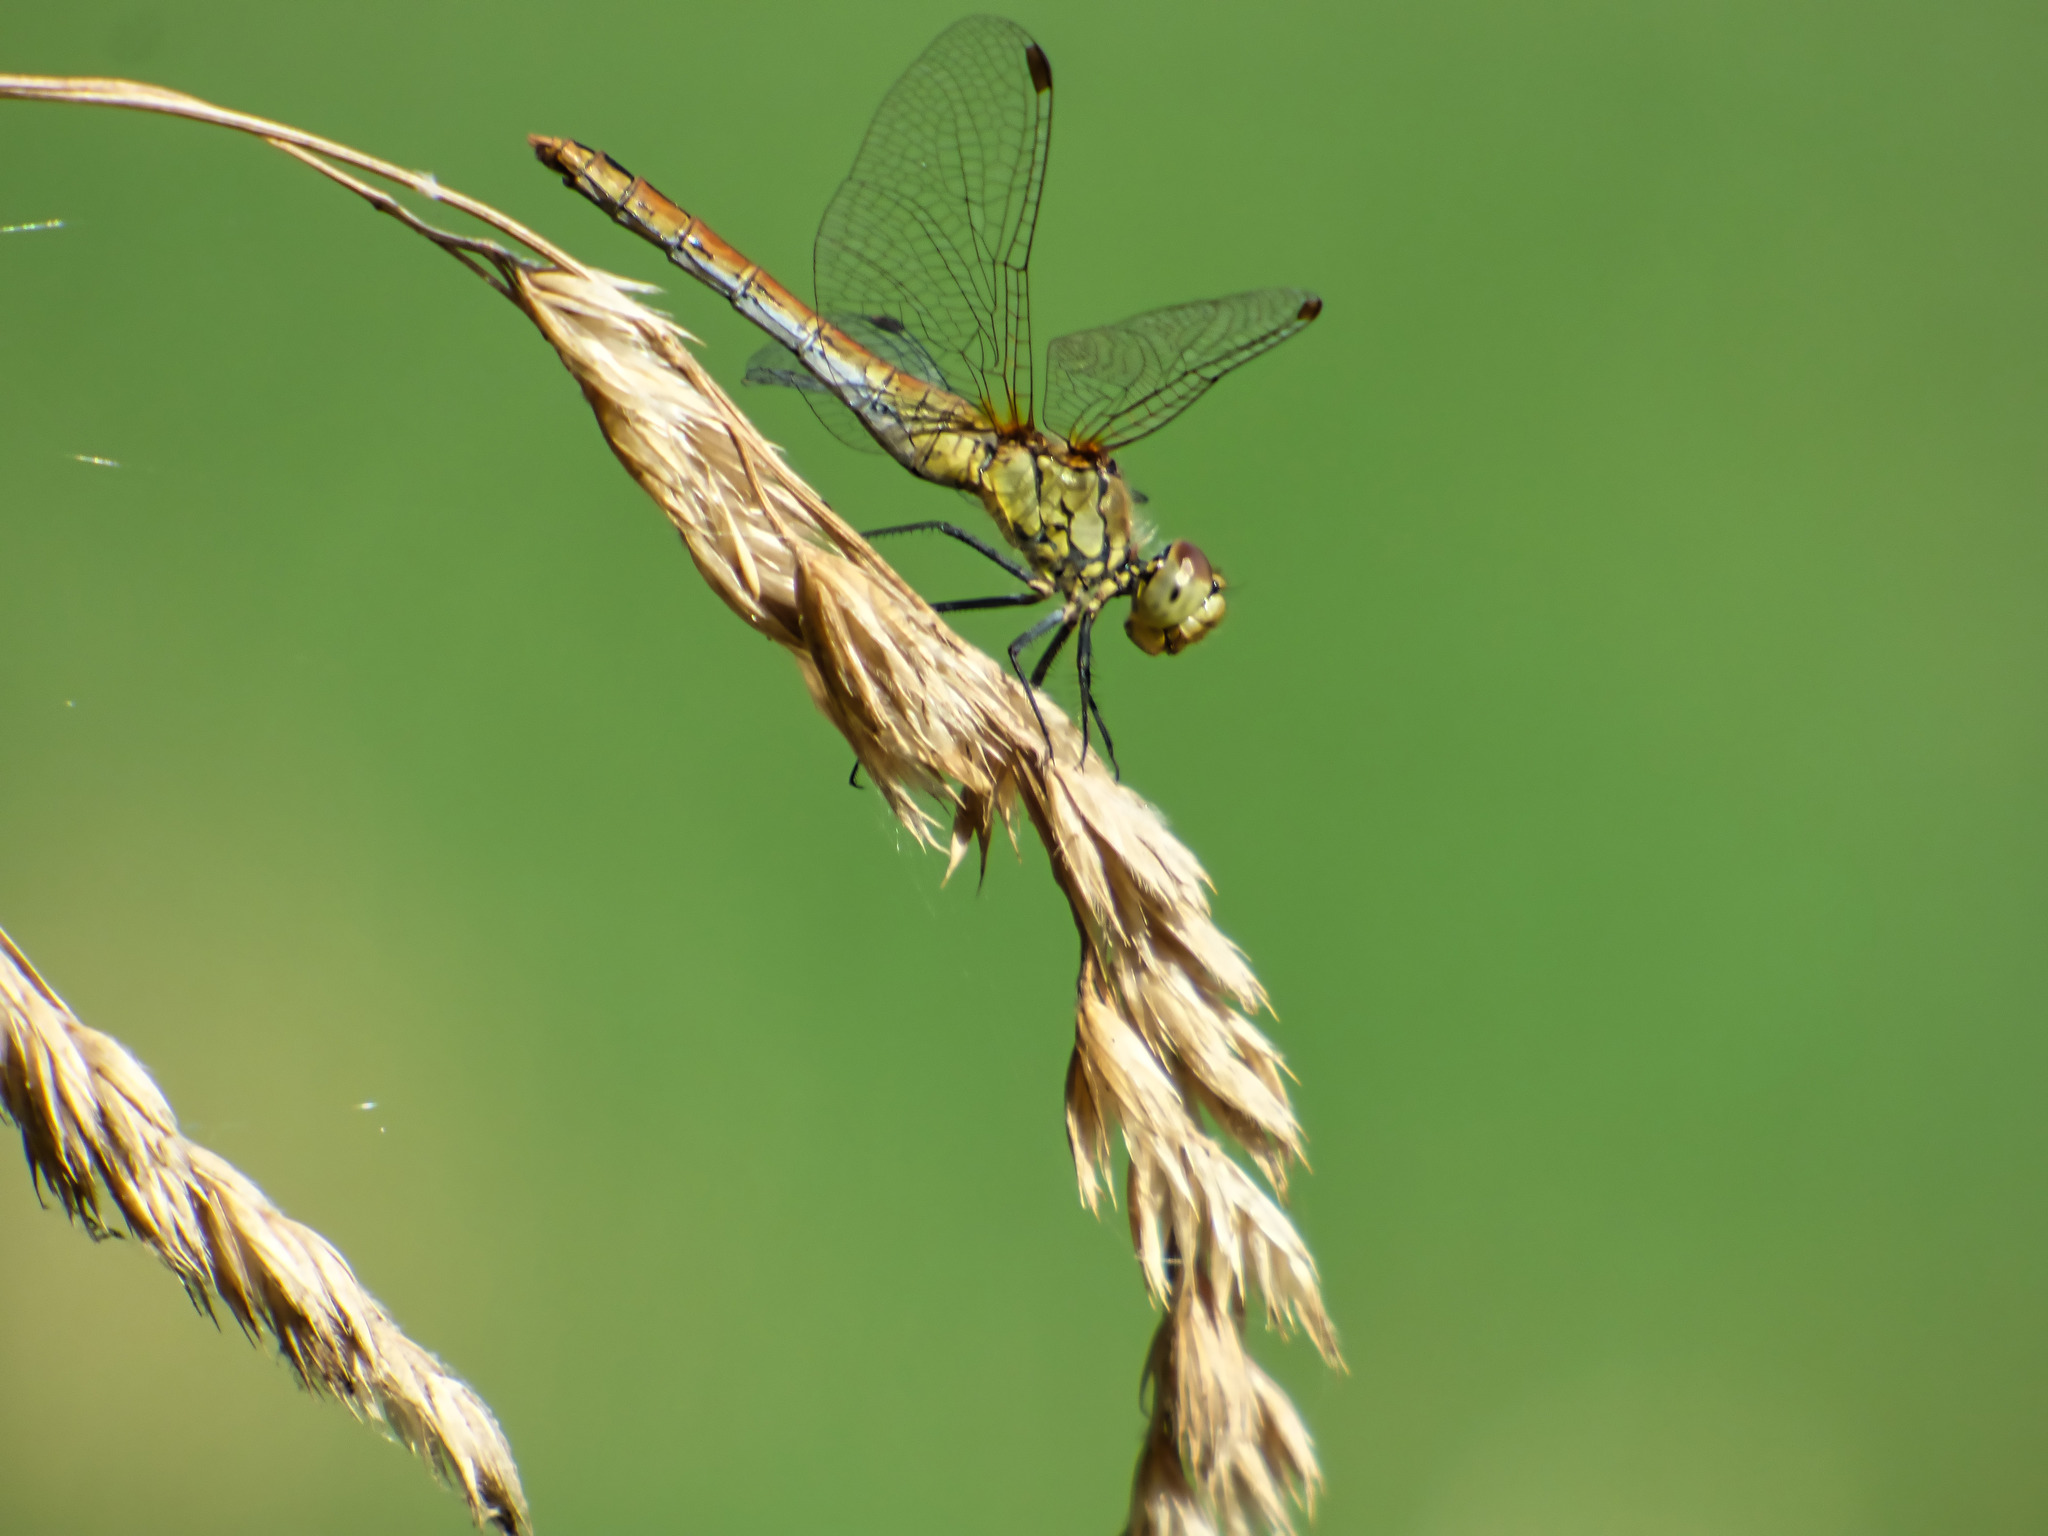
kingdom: Animalia
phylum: Arthropoda
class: Insecta
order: Odonata
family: Libellulidae
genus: Sympetrum
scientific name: Sympetrum sanguineum
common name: Ruddy darter
